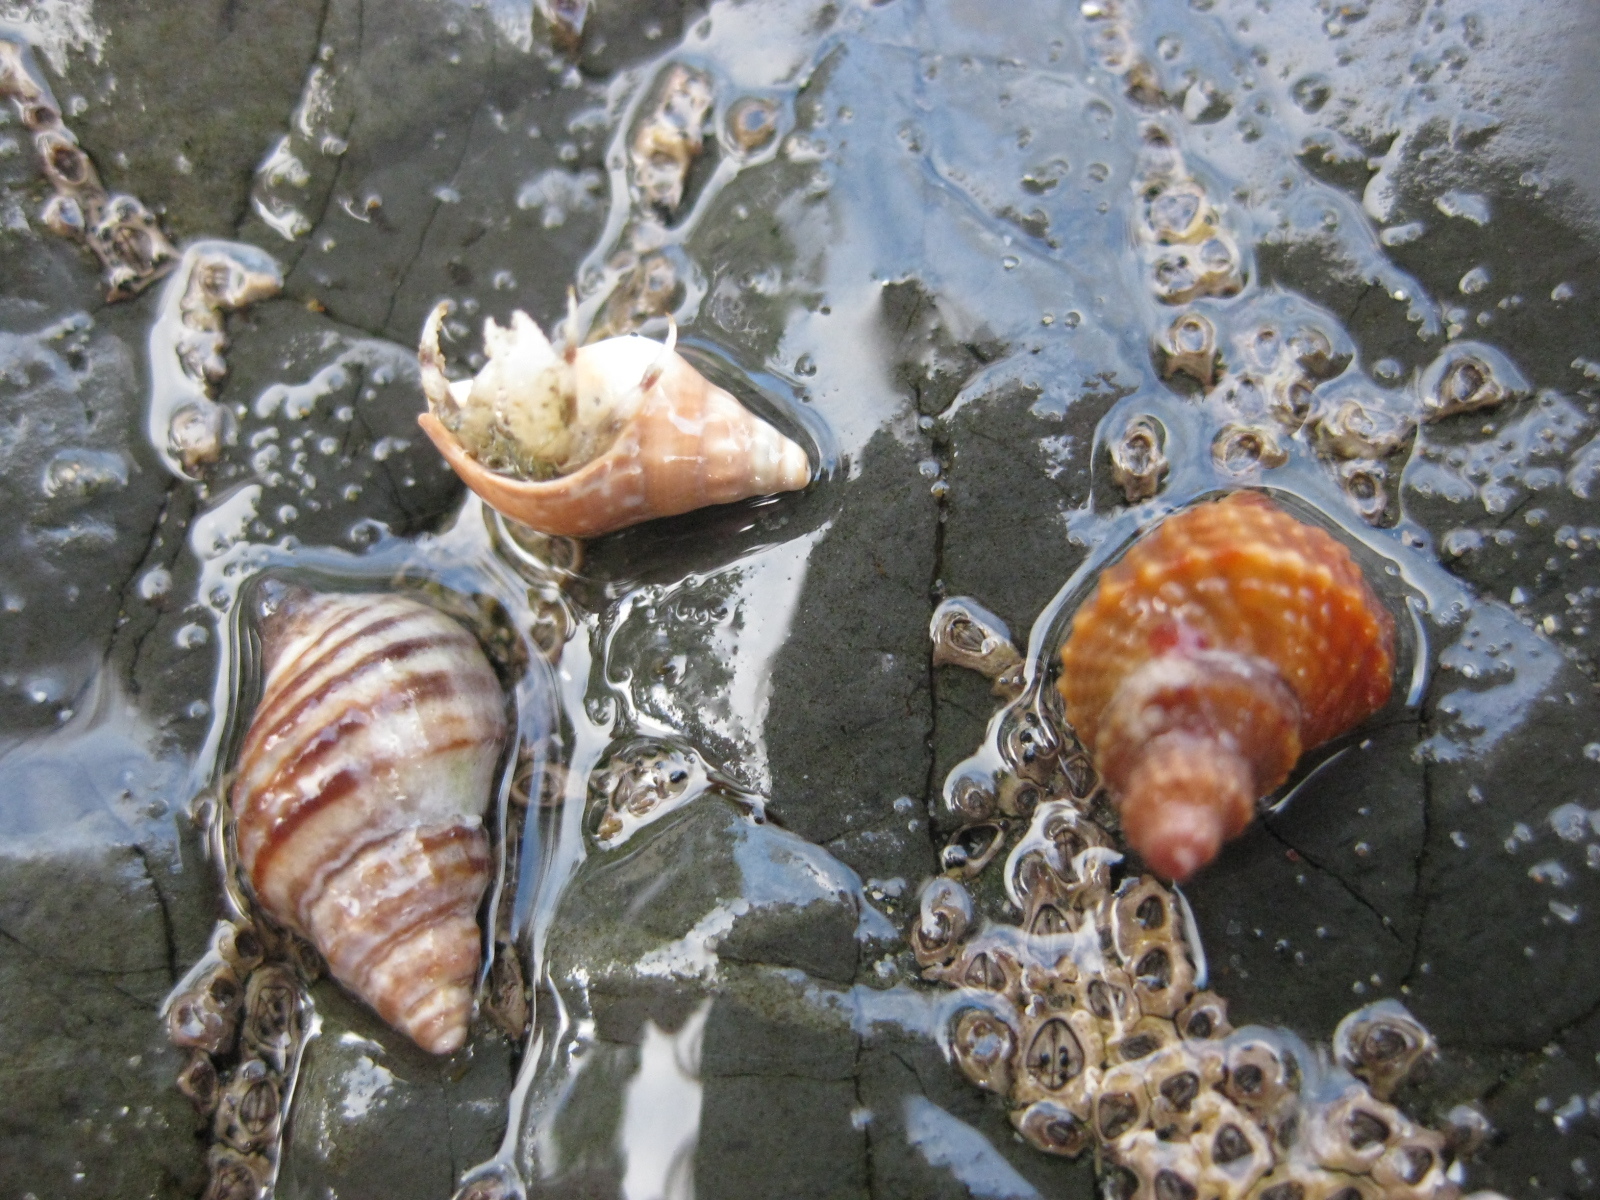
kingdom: Animalia
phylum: Mollusca
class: Gastropoda
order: Neogastropoda
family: Muricidae
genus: Xymene
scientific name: Xymene plebeius
